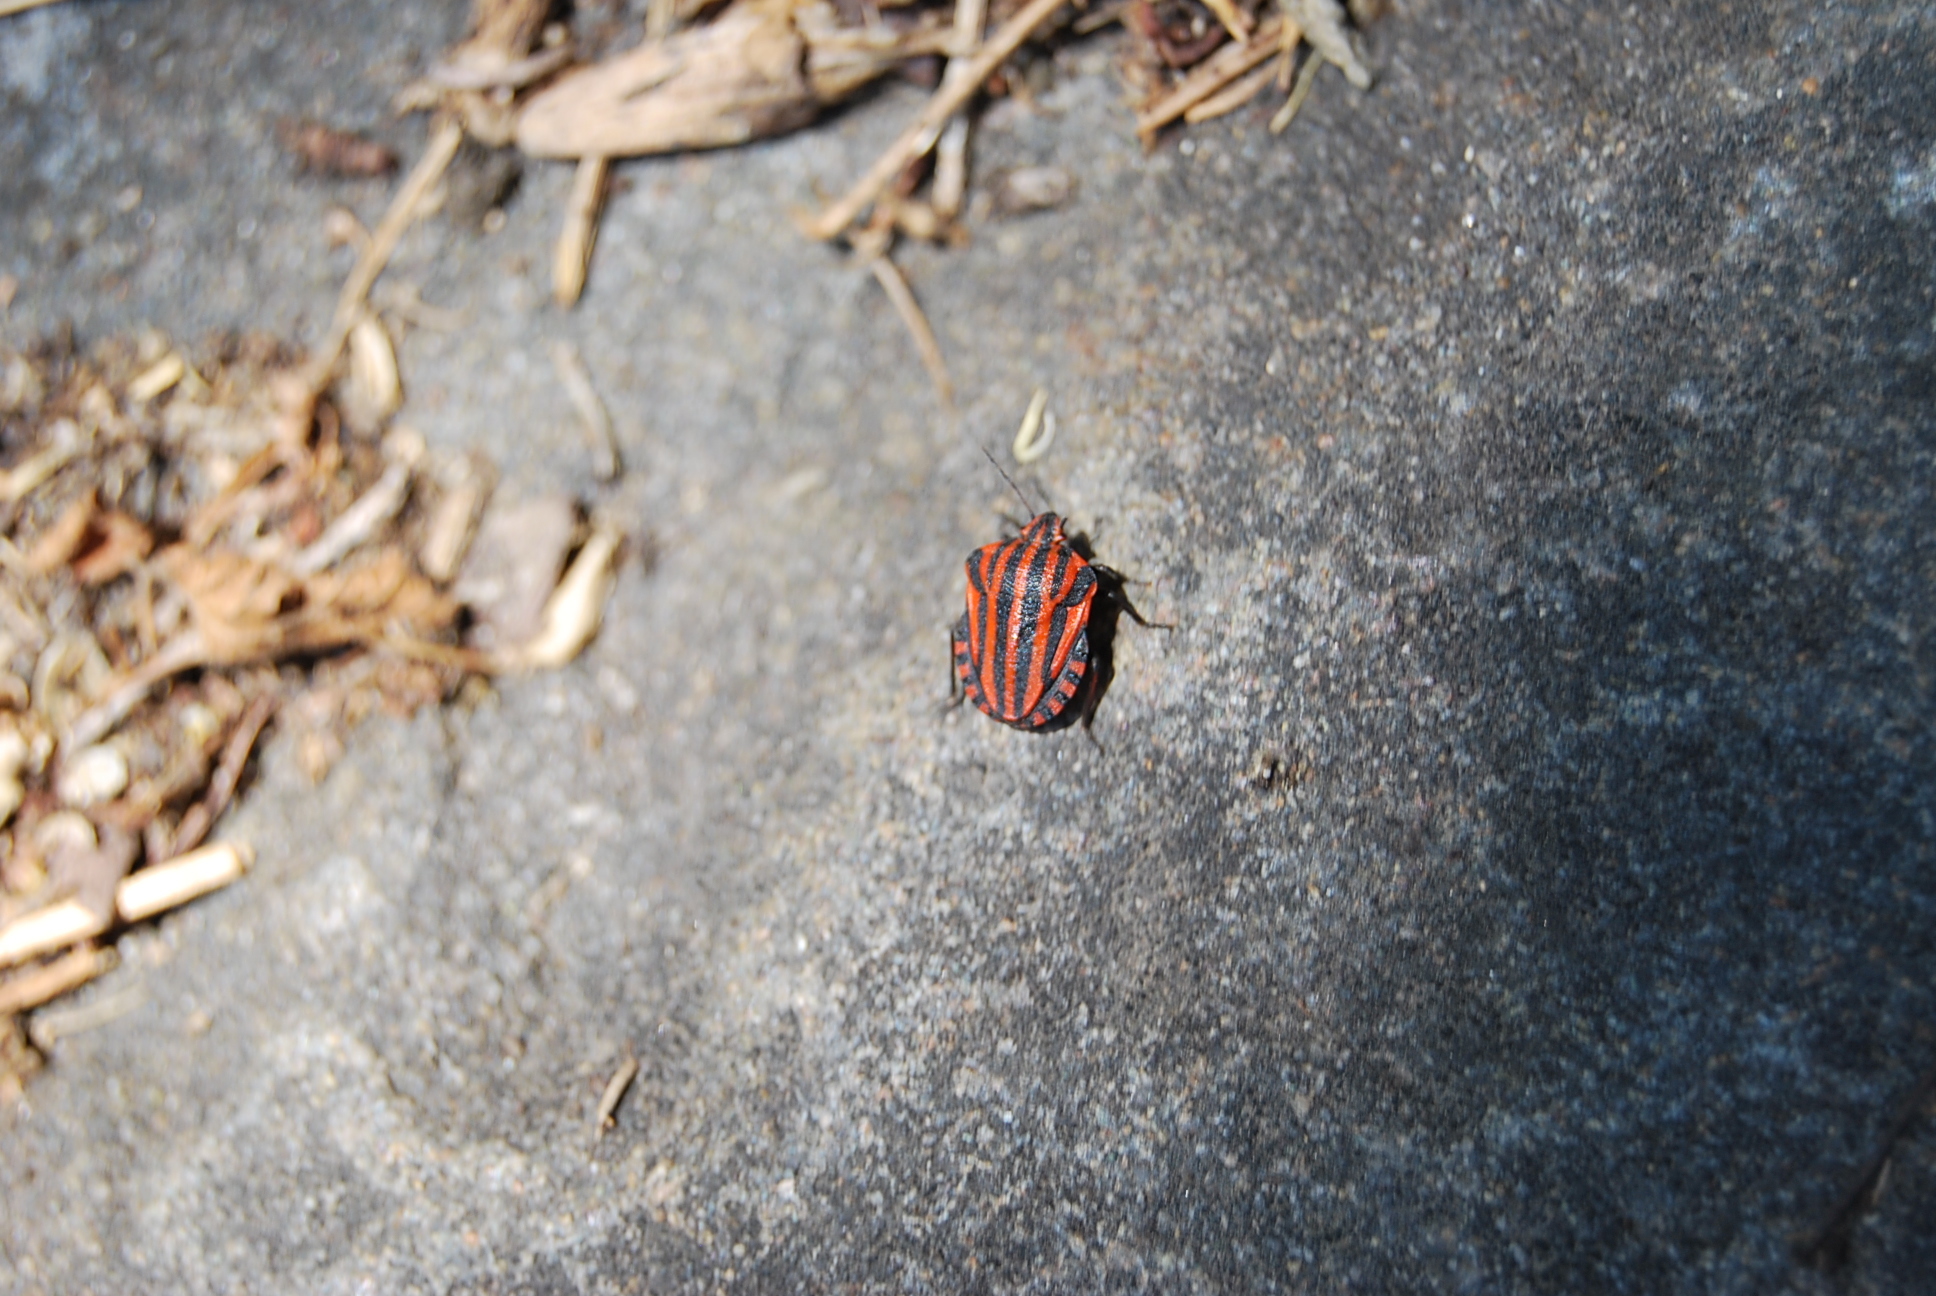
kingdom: Animalia
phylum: Arthropoda
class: Insecta
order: Hemiptera
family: Pentatomidae
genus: Graphosoma
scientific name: Graphosoma italicum
